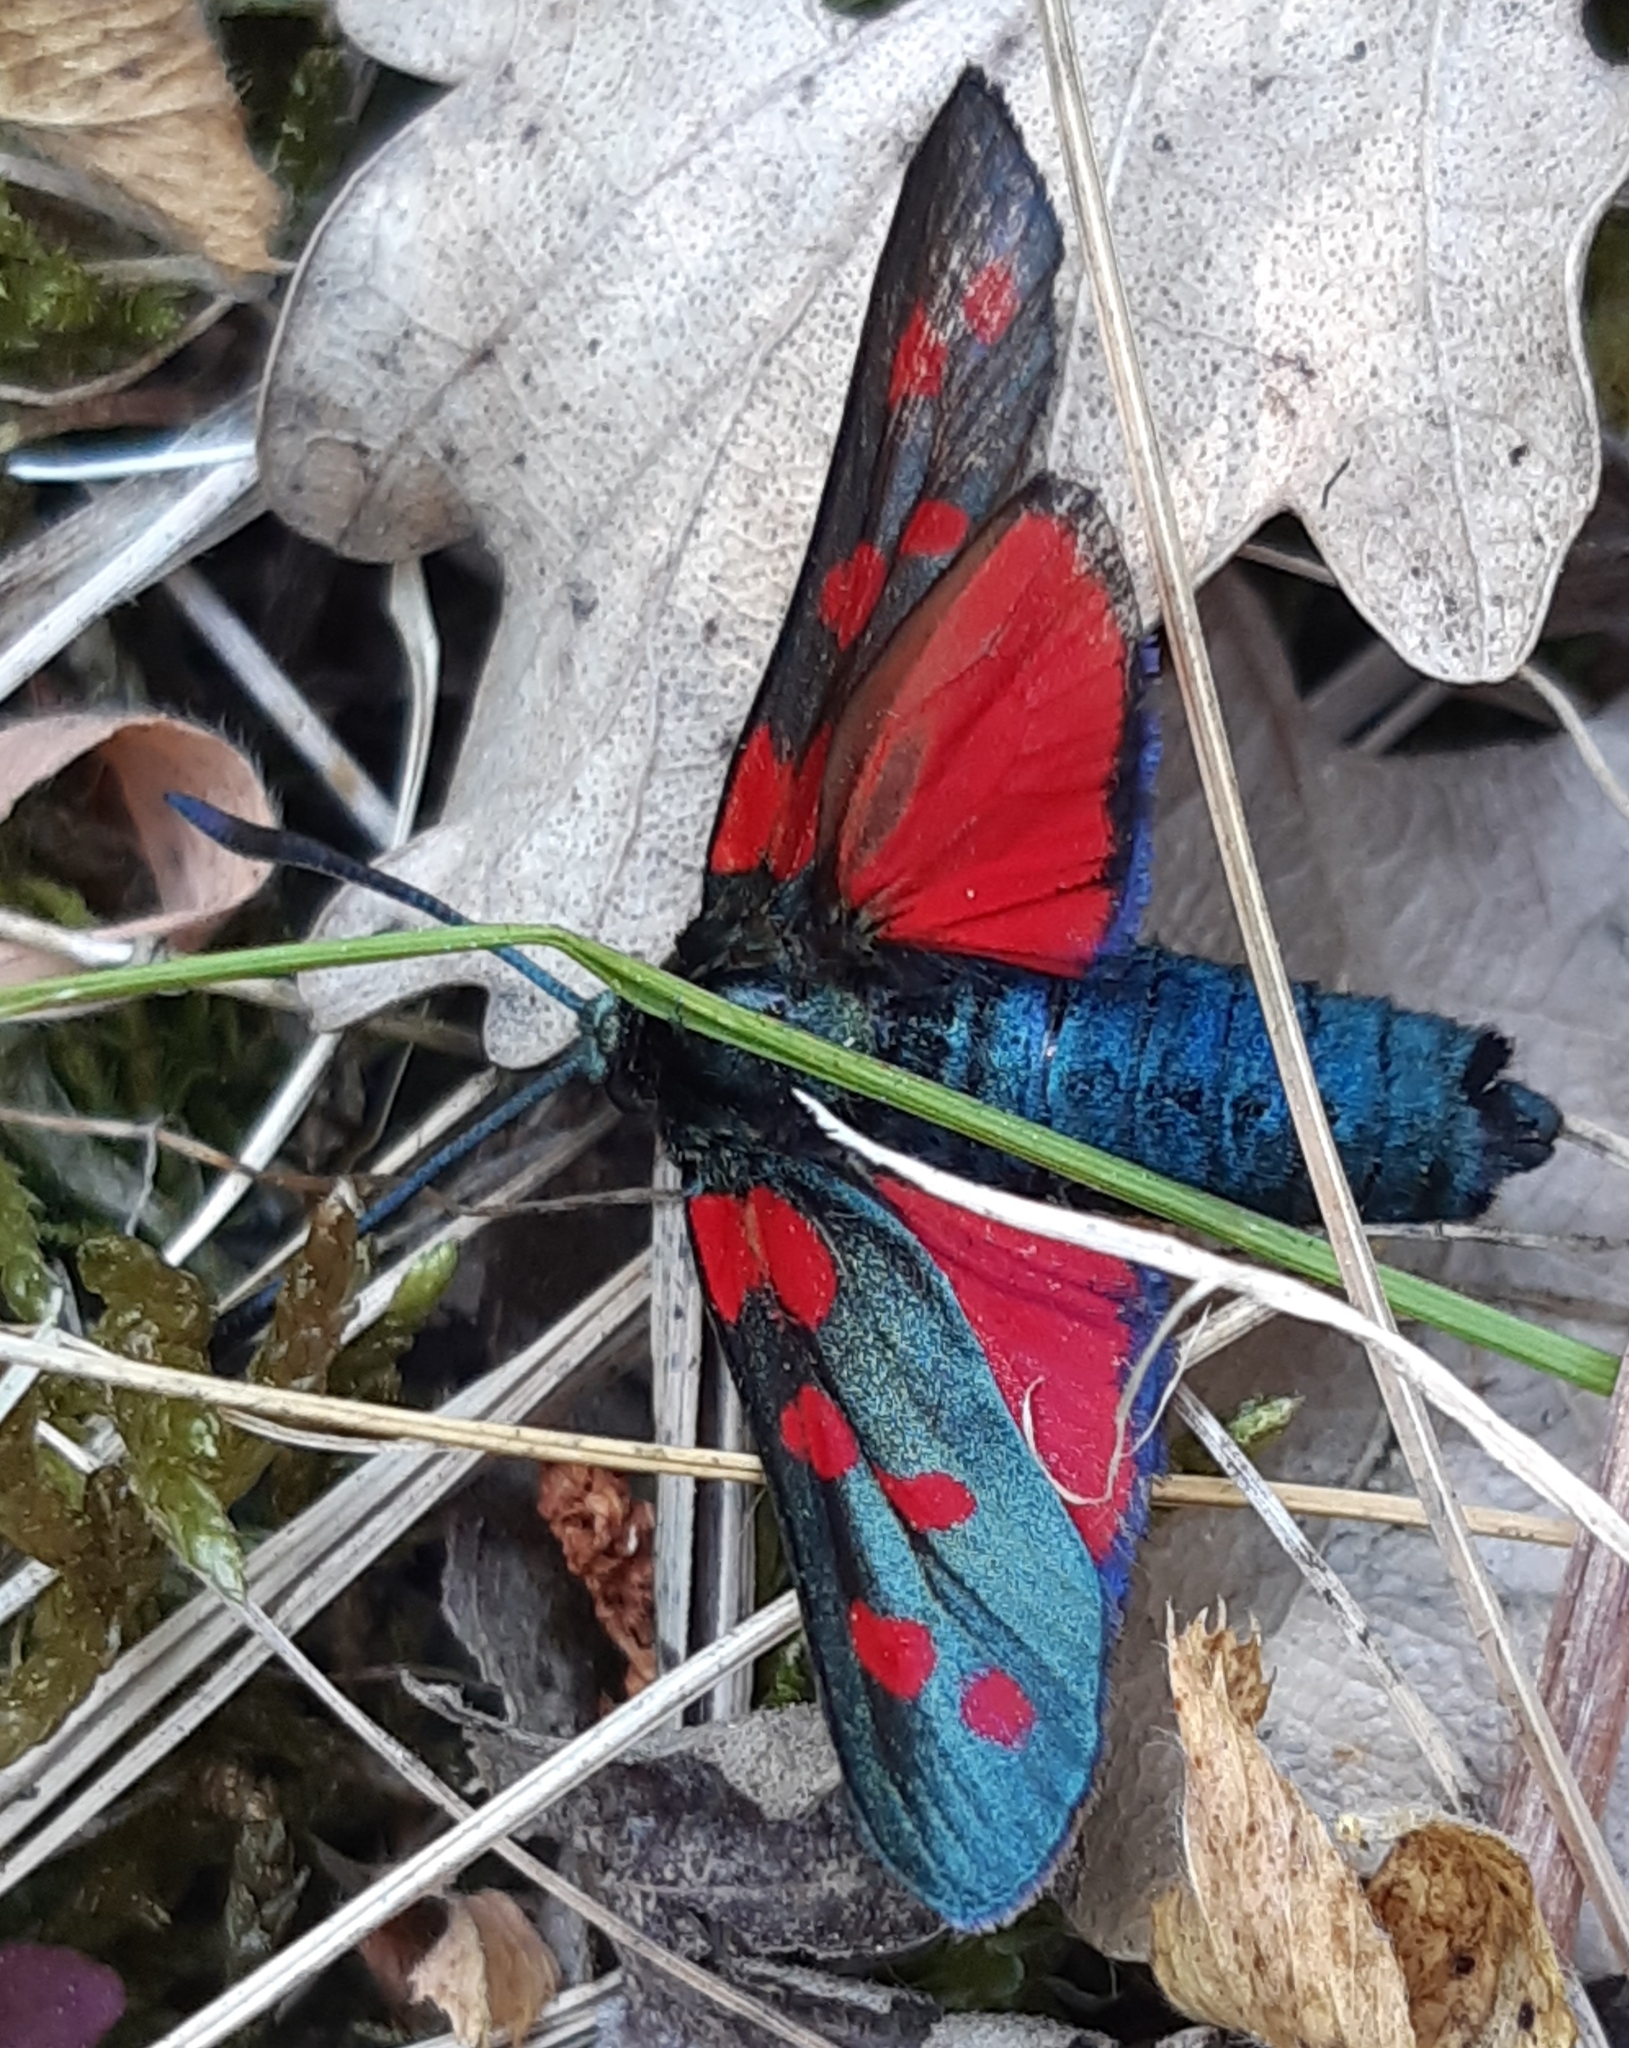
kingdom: Animalia
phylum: Arthropoda
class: Insecta
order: Lepidoptera
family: Zygaenidae
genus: Zygaena
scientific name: Zygaena filipendulae
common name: Six-spot burnet
